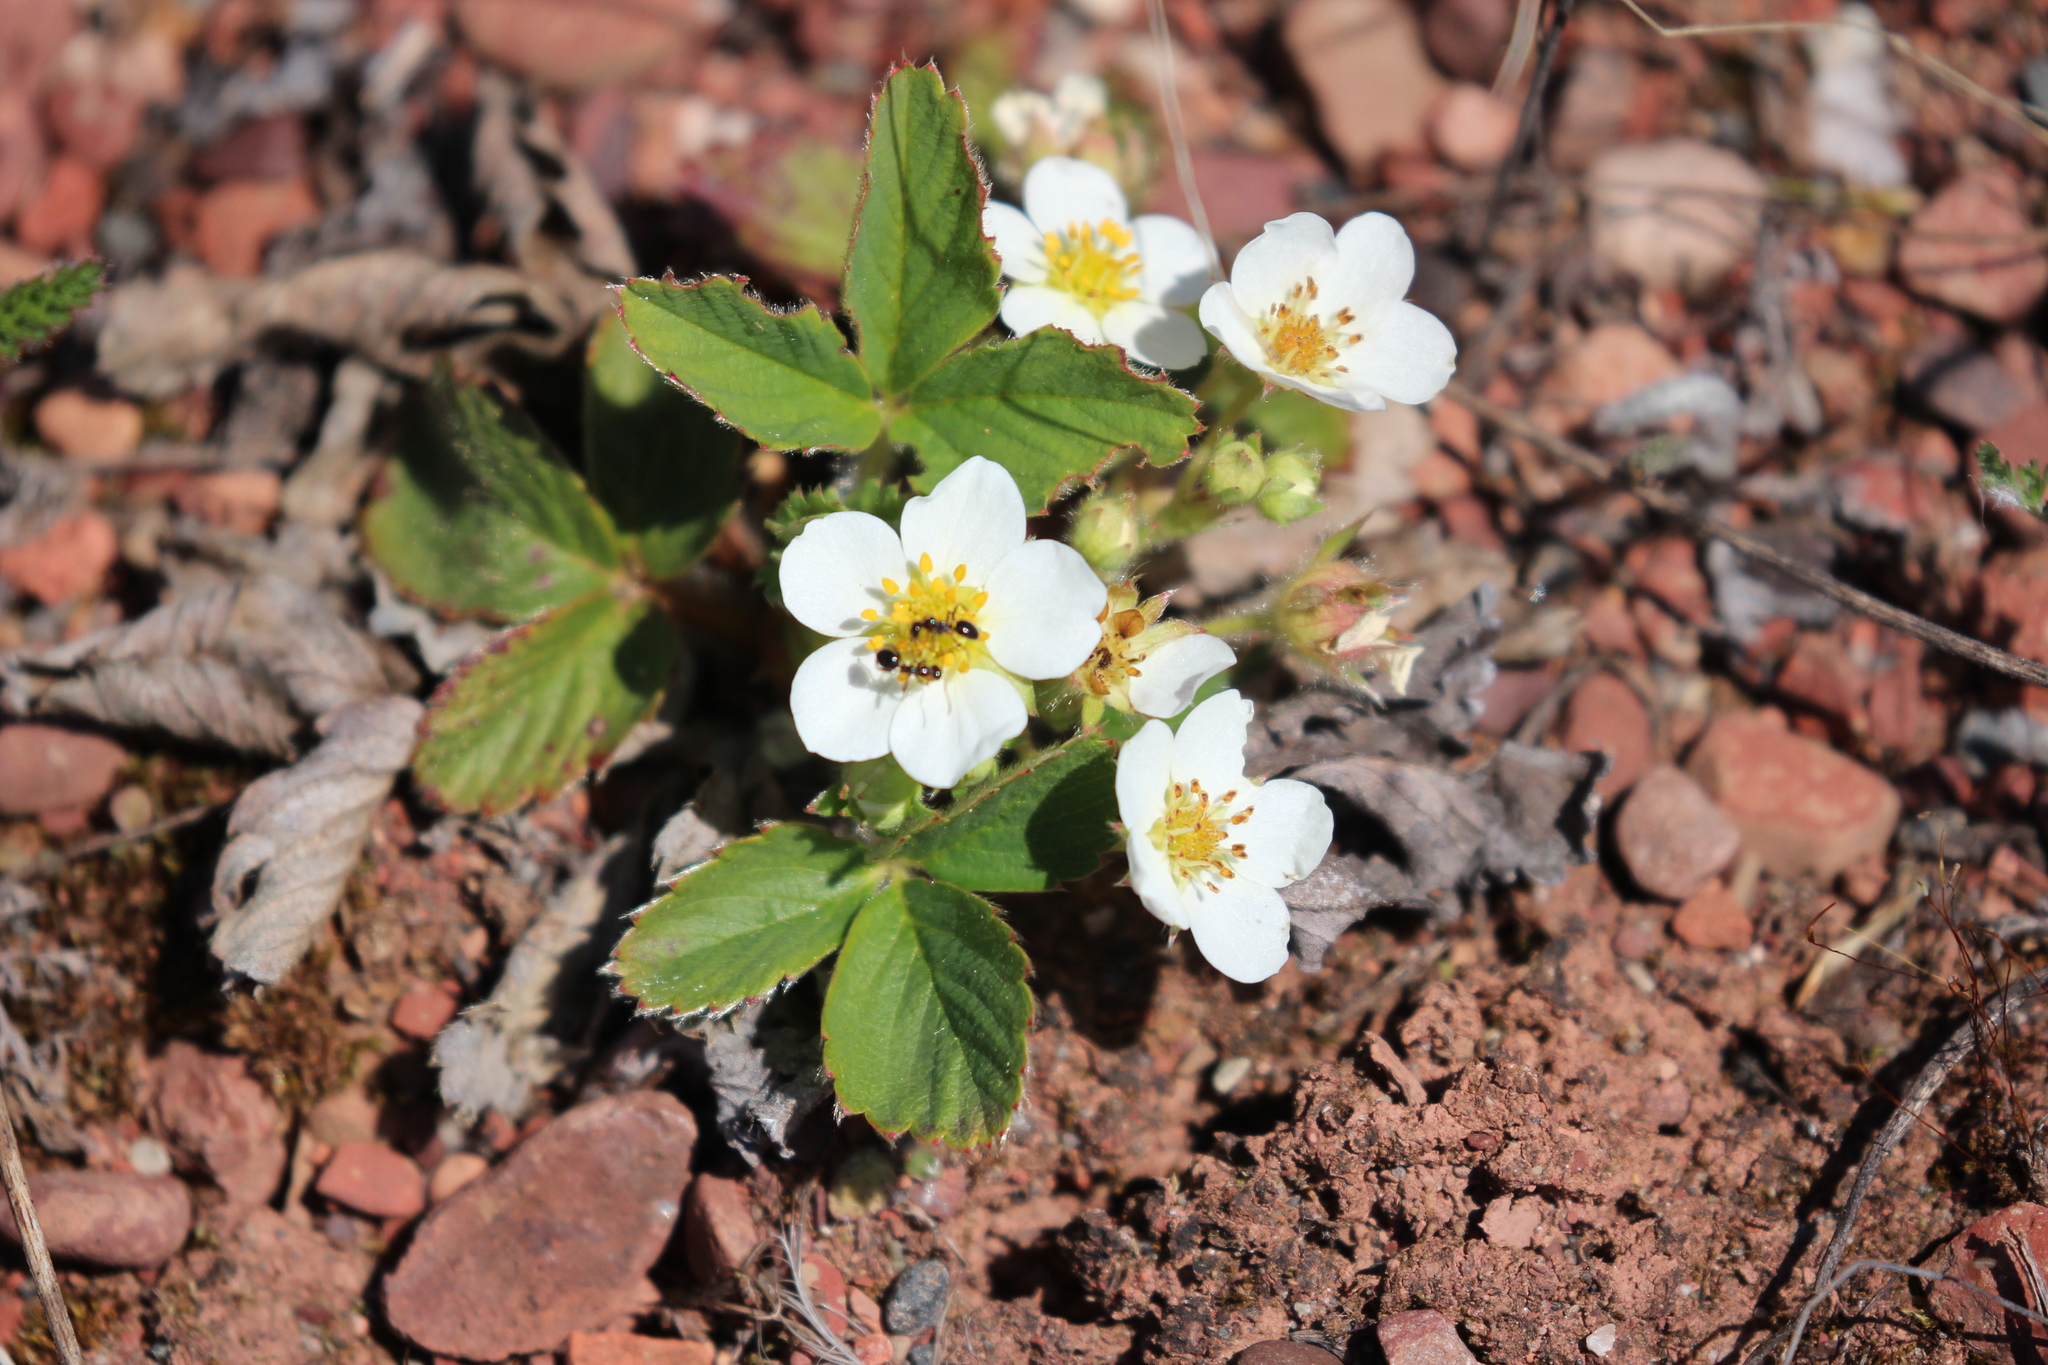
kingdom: Plantae
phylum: Tracheophyta
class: Magnoliopsida
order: Rosales
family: Rosaceae
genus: Fragaria
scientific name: Fragaria virginiana
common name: Thickleaved wild strawberry
